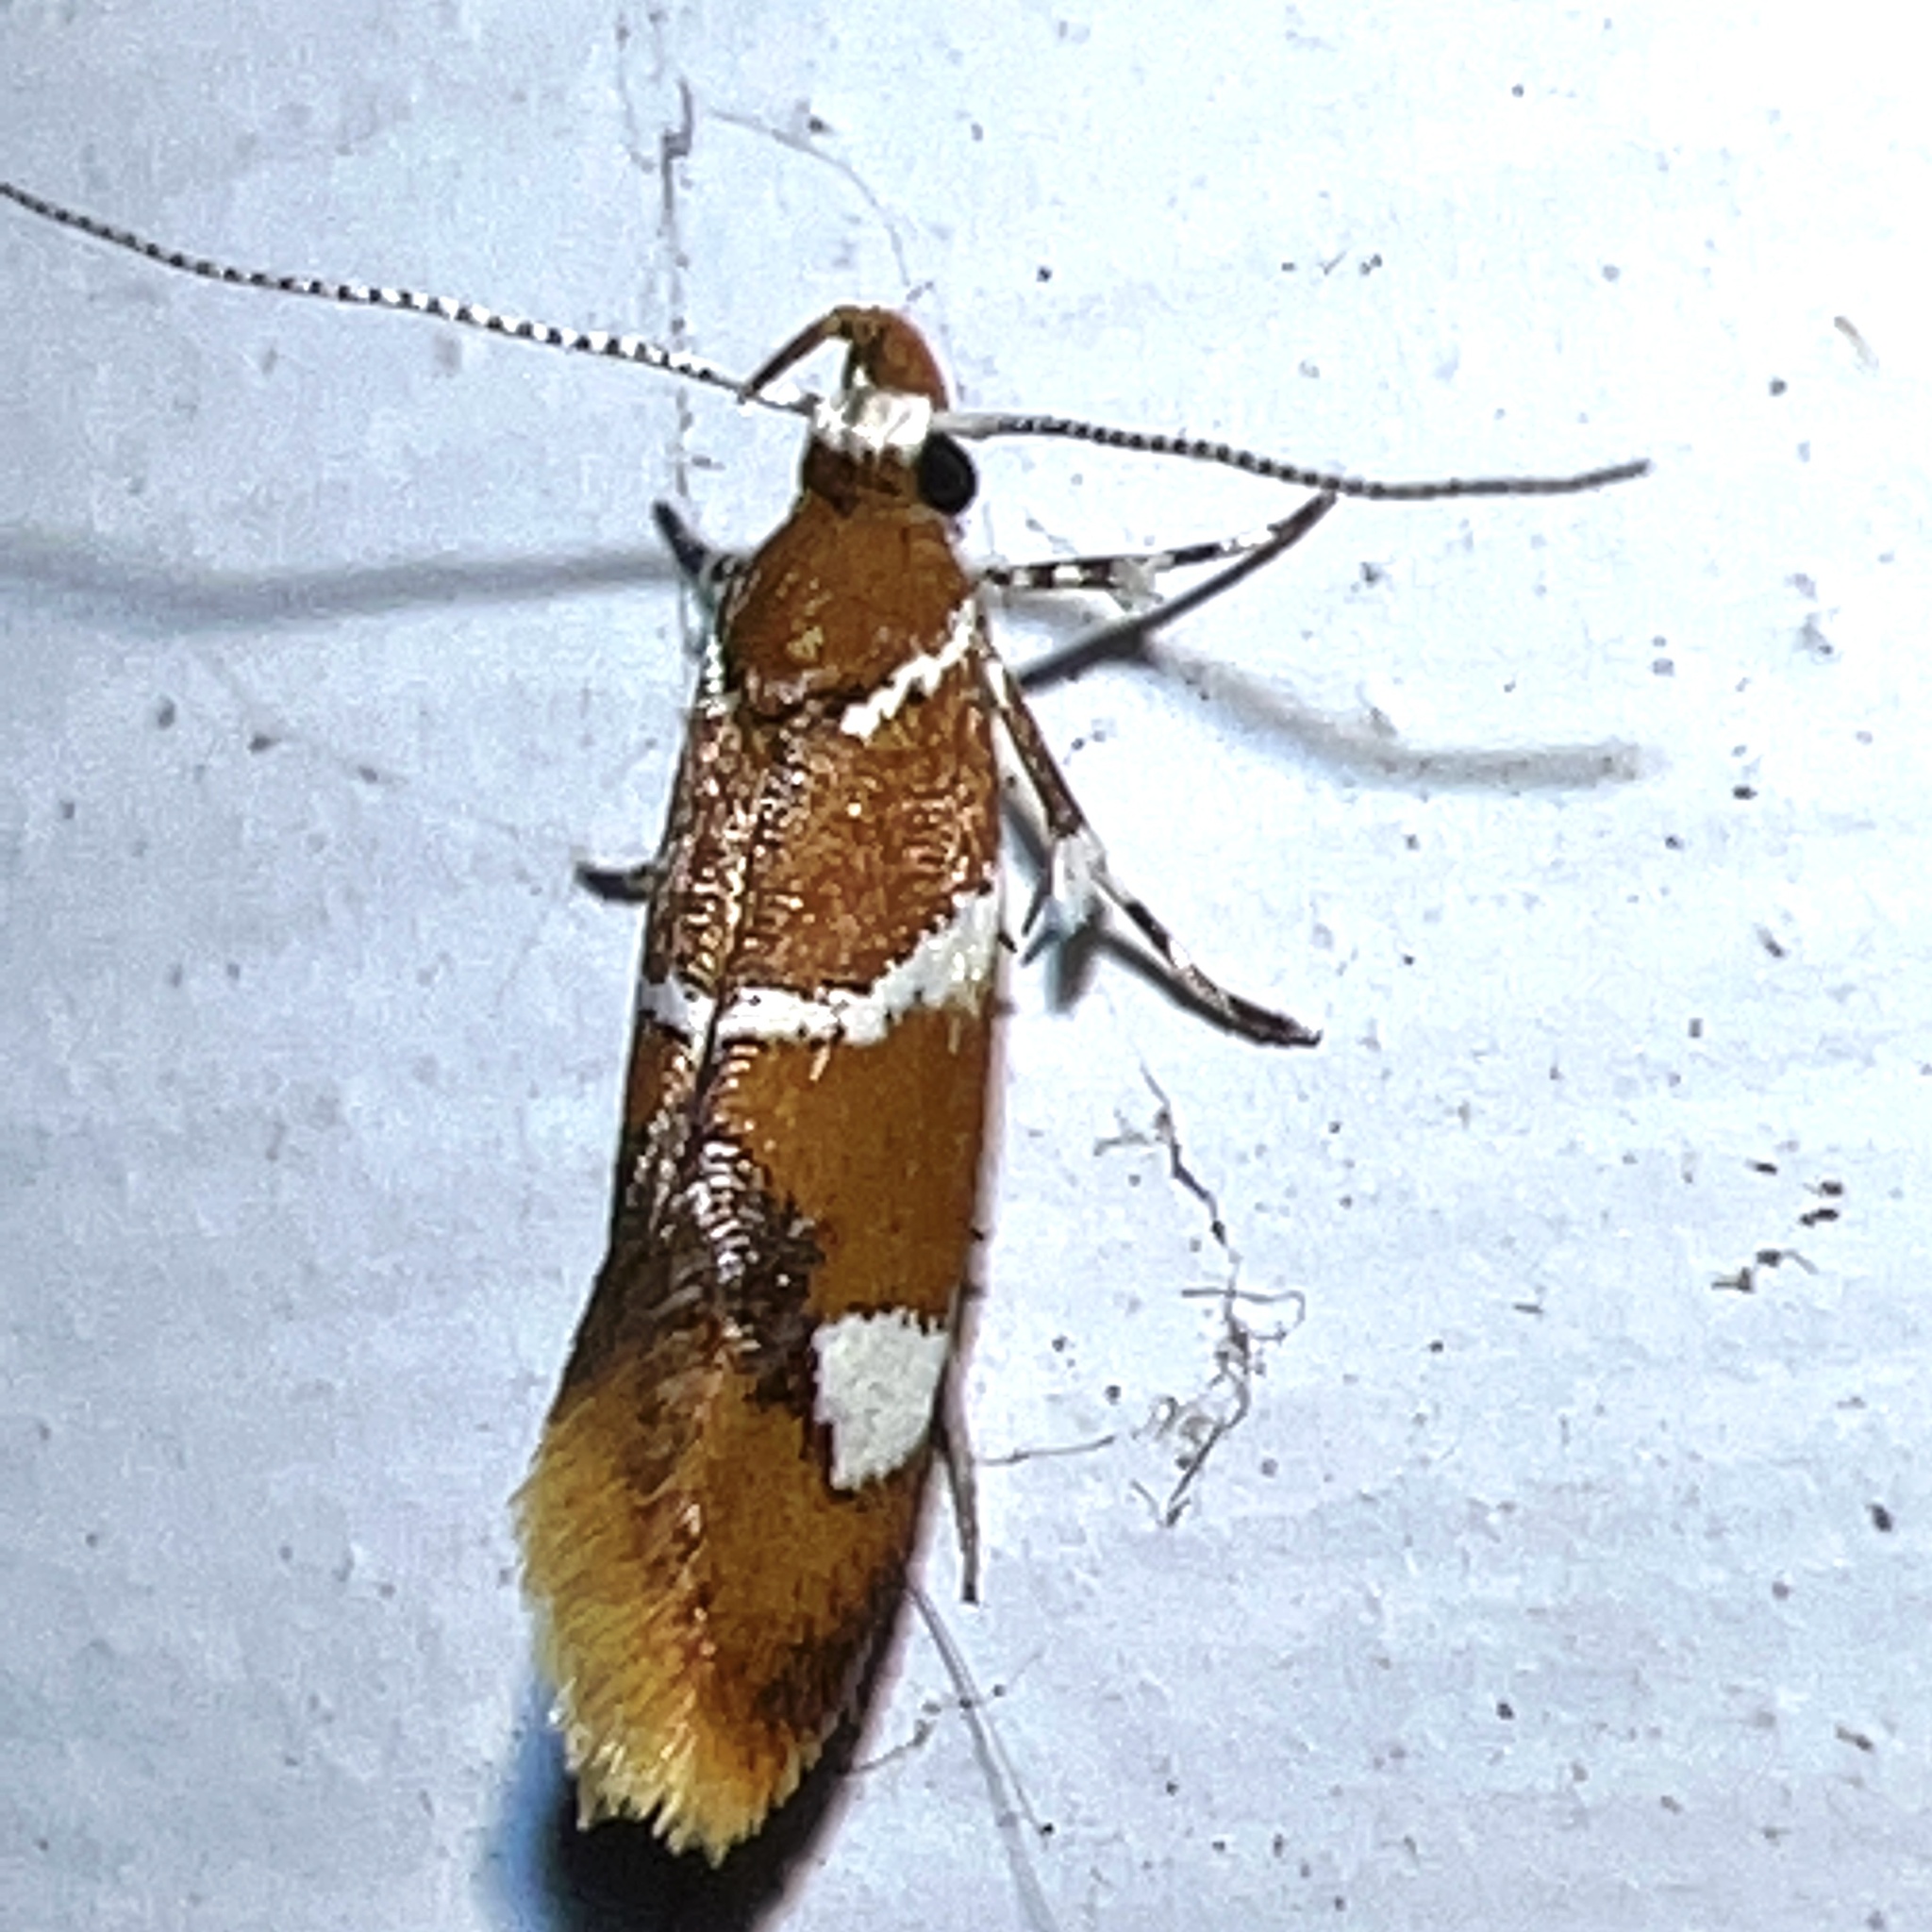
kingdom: Animalia
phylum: Arthropoda
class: Insecta
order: Lepidoptera
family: Oecophoridae
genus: Promalactis
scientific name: Promalactis suzukiella
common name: Moth
